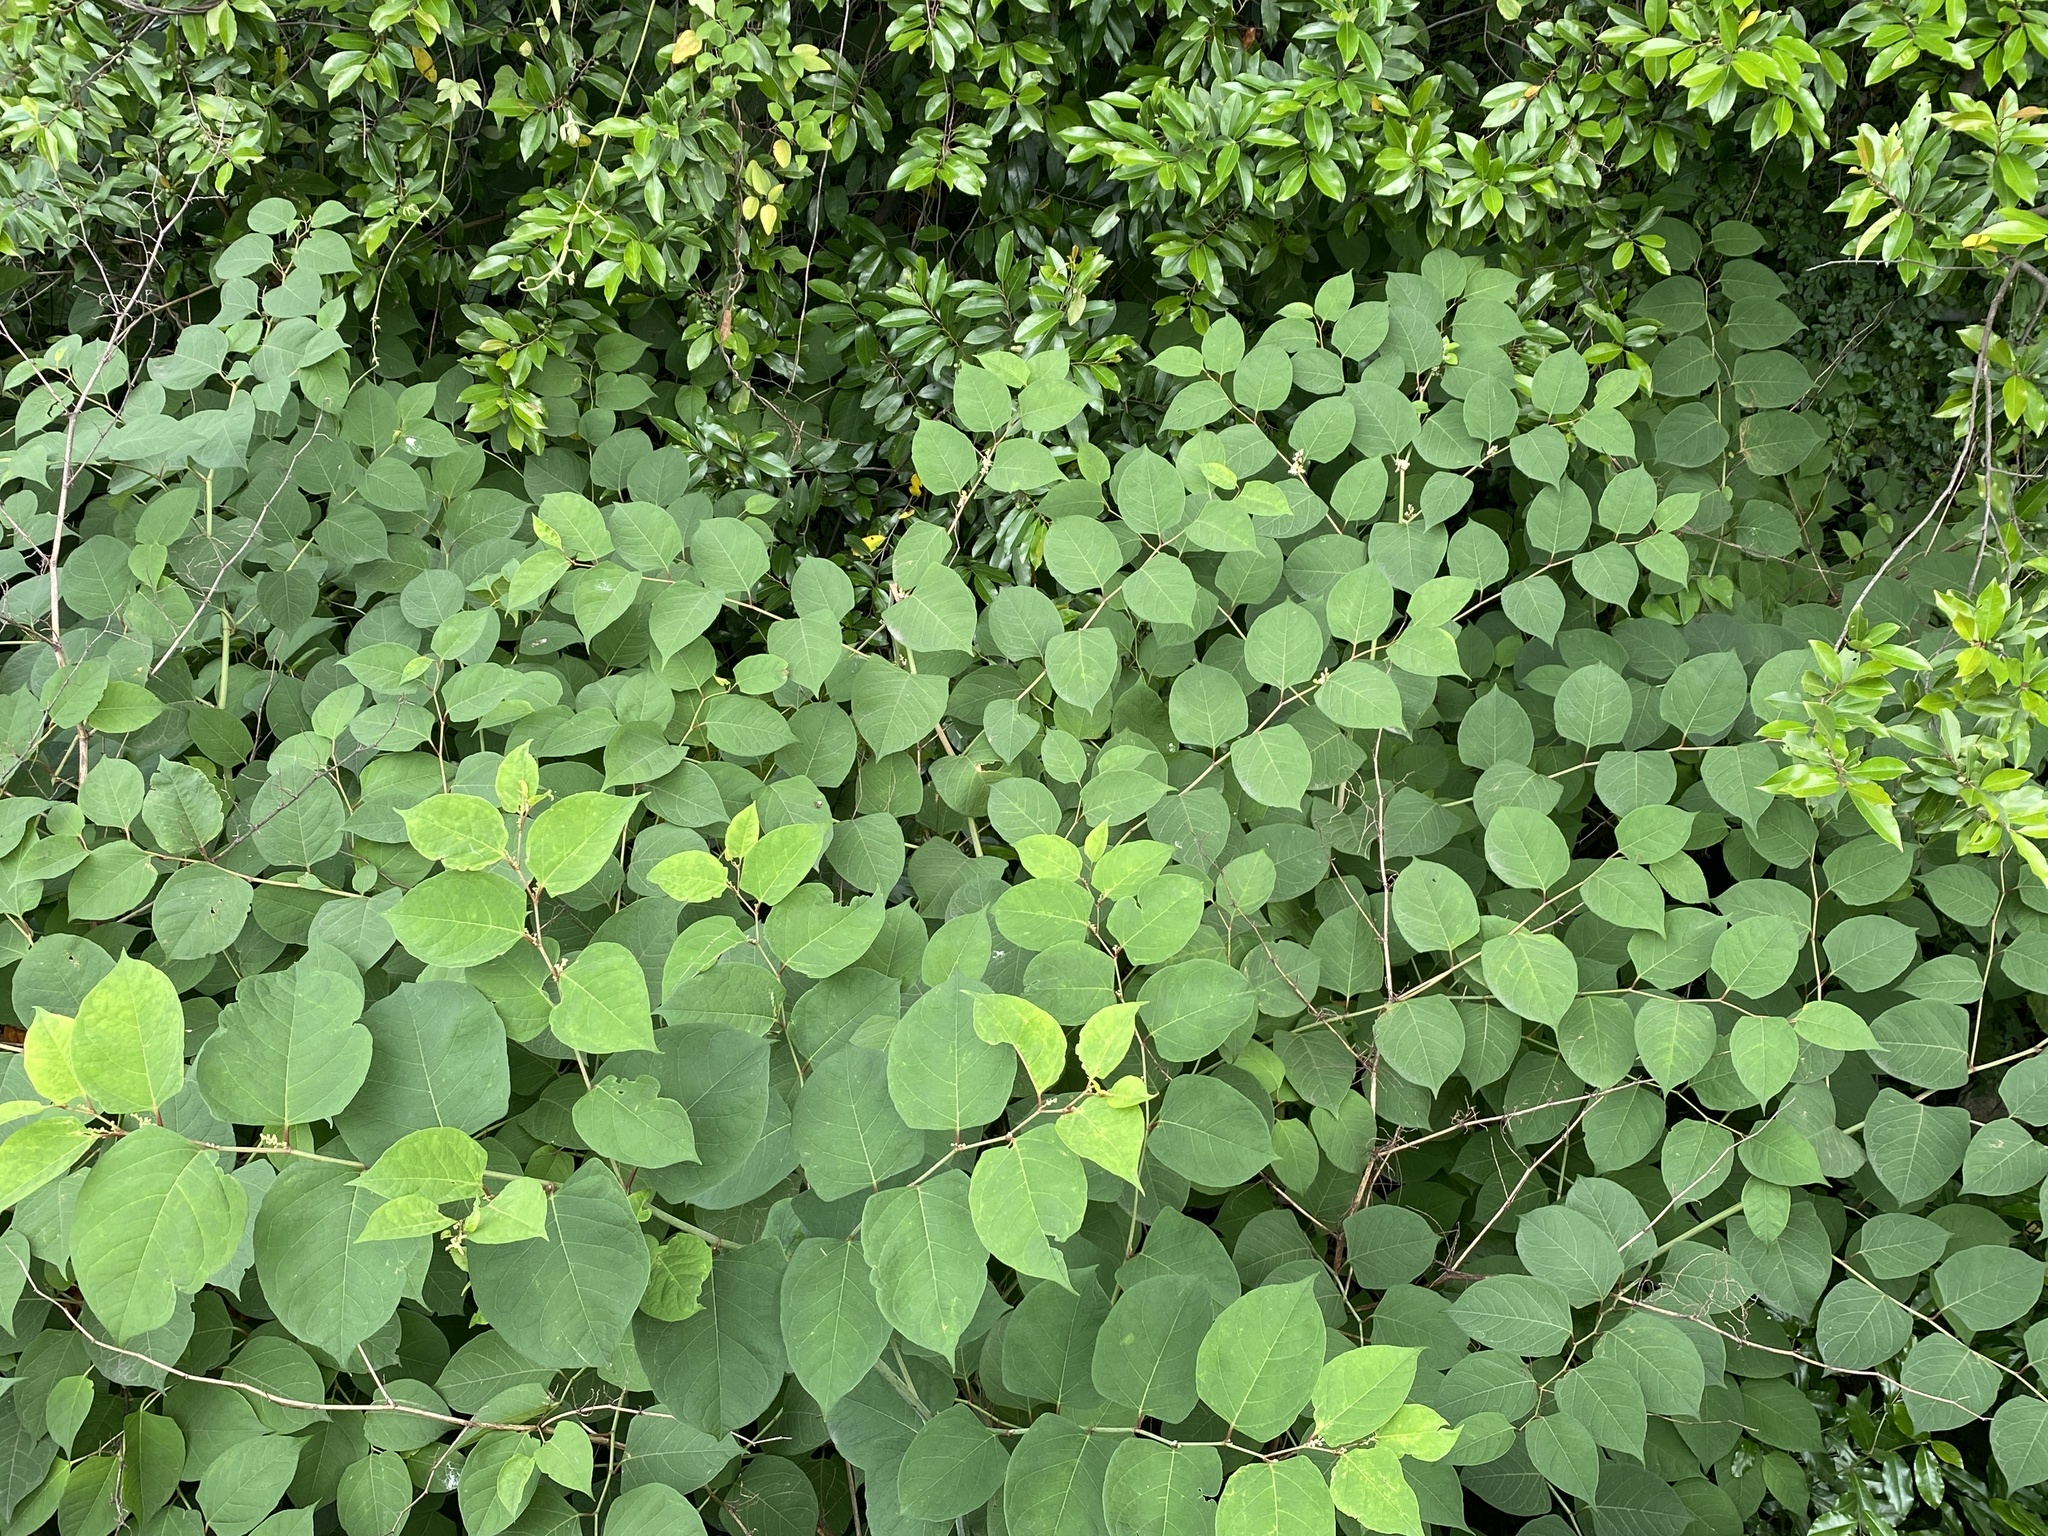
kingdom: Plantae
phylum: Tracheophyta
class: Magnoliopsida
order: Caryophyllales
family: Polygonaceae
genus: Reynoutria
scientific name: Reynoutria japonica
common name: Japanese knotweed
